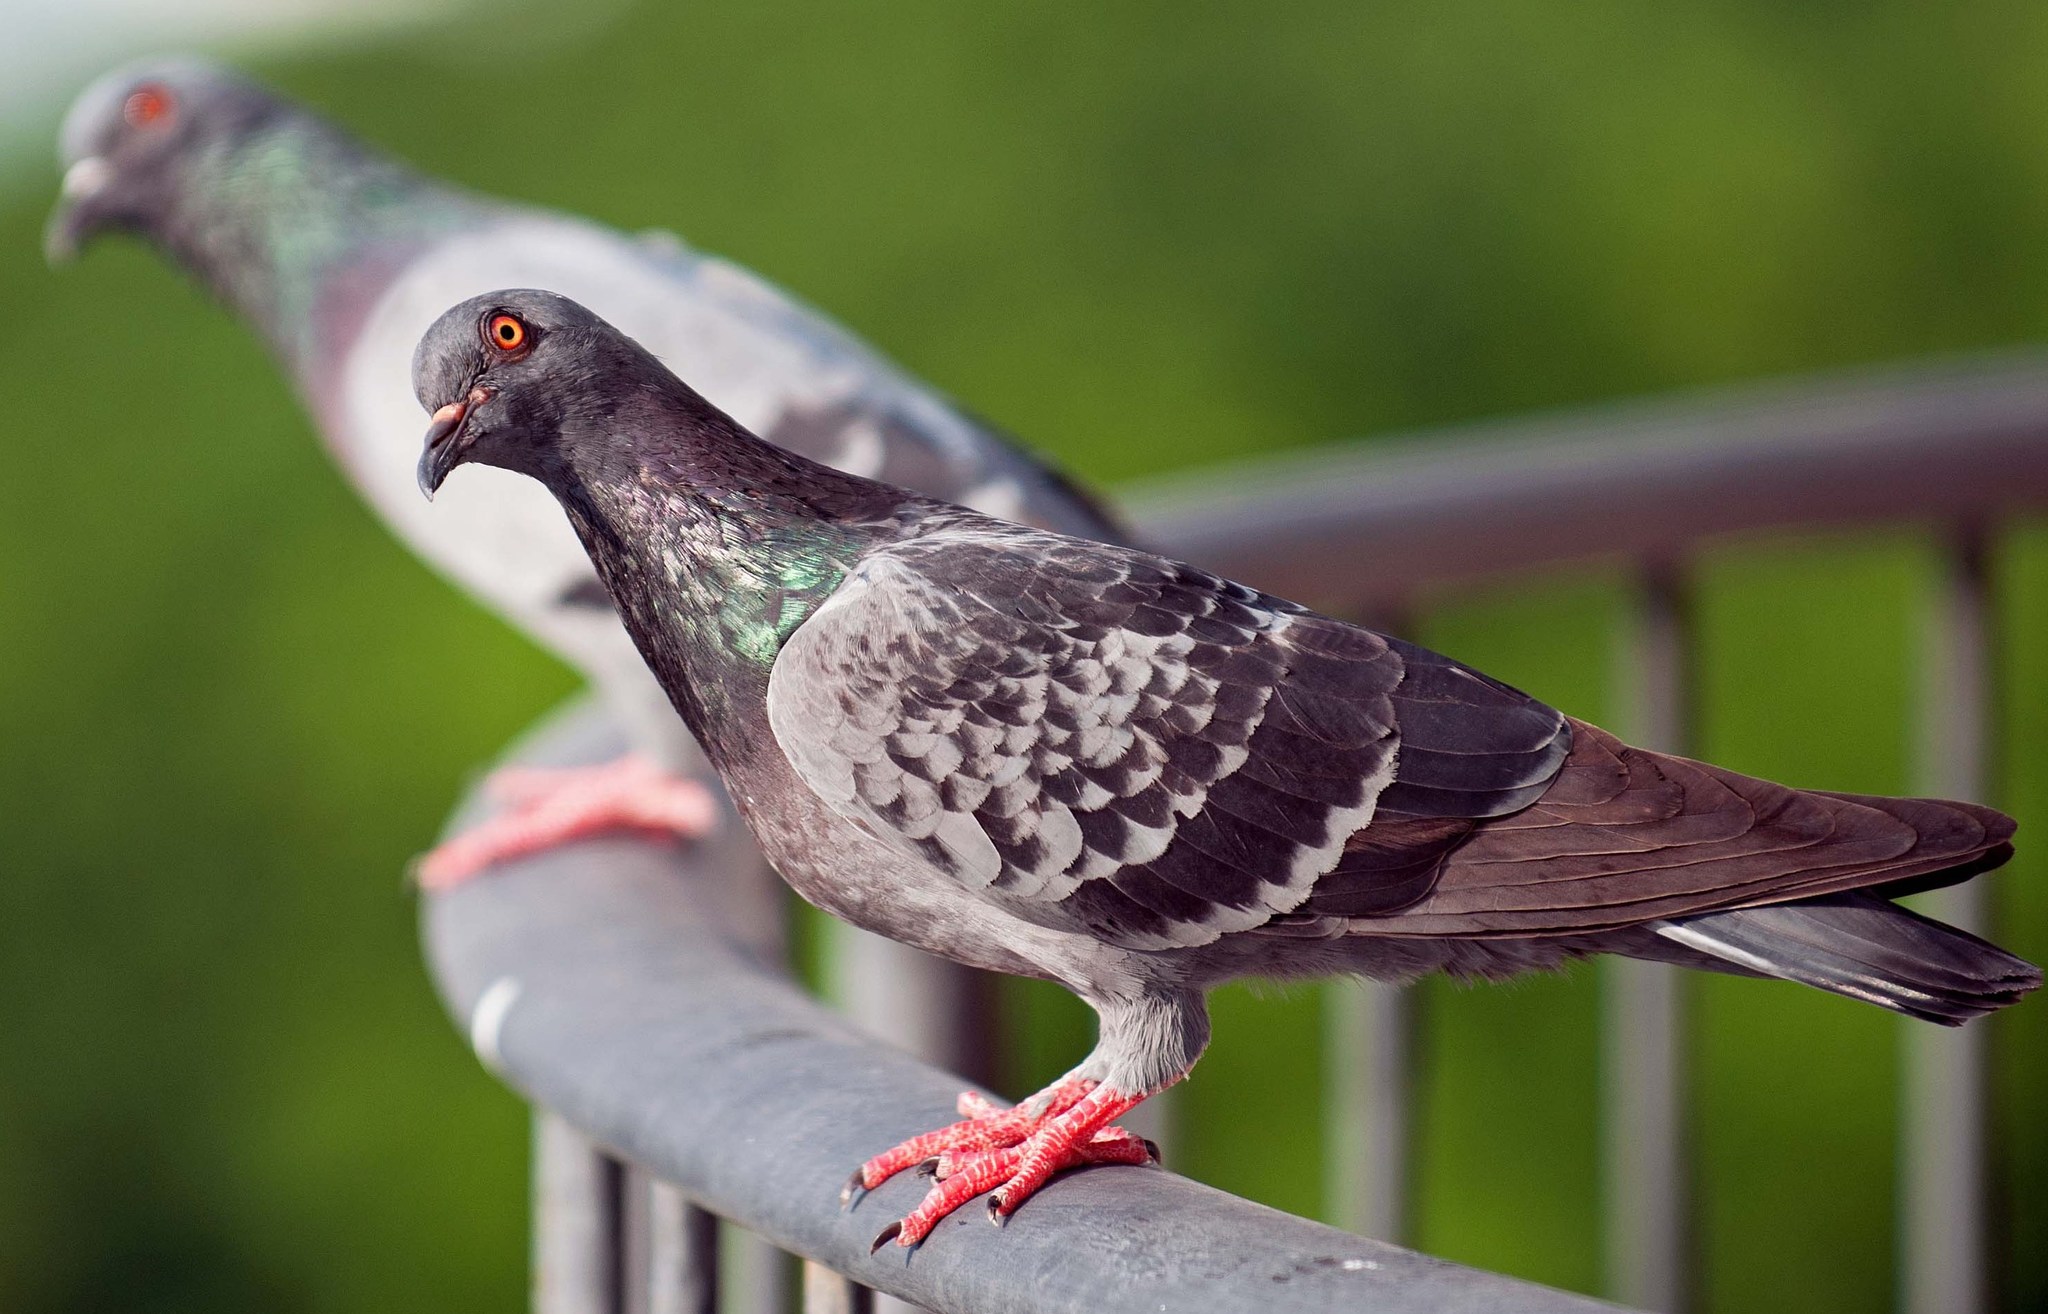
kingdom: Animalia
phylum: Chordata
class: Aves
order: Columbiformes
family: Columbidae
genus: Columba
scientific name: Columba livia
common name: Rock pigeon
